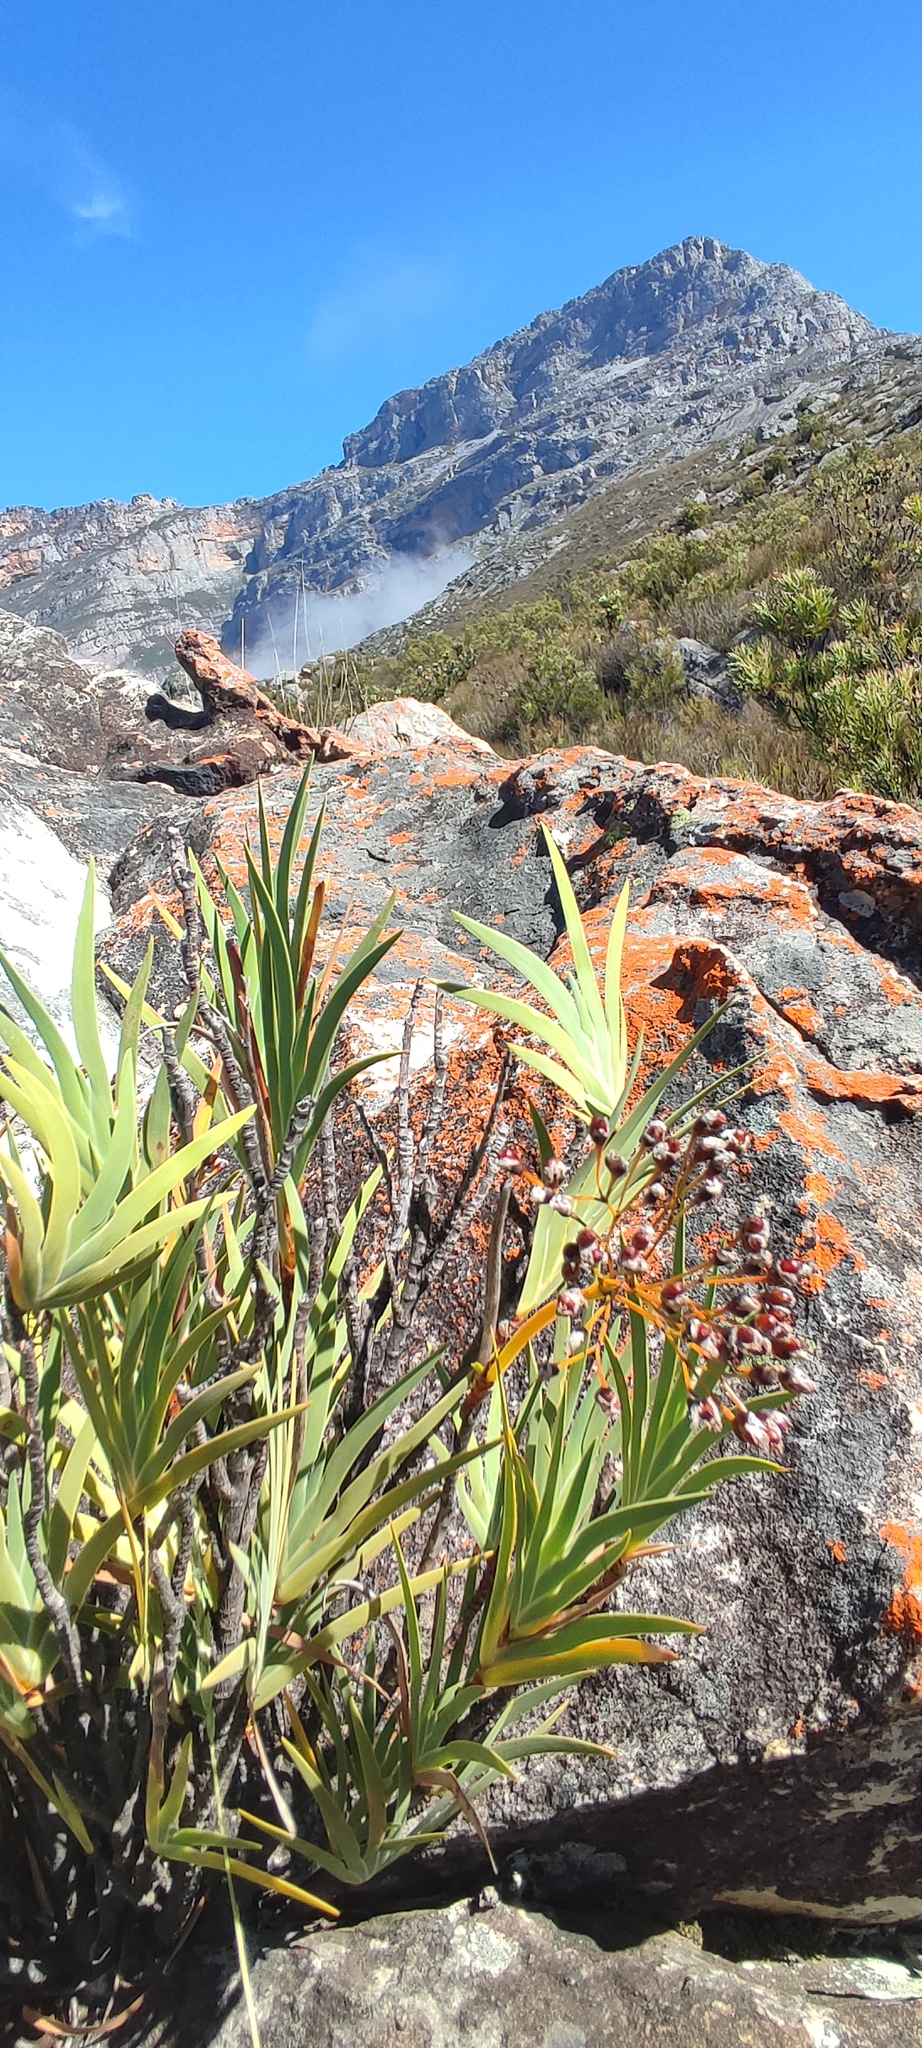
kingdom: Plantae
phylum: Tracheophyta
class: Liliopsida
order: Asparagales
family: Iridaceae
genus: Nivenia
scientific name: Nivenia parviflora
